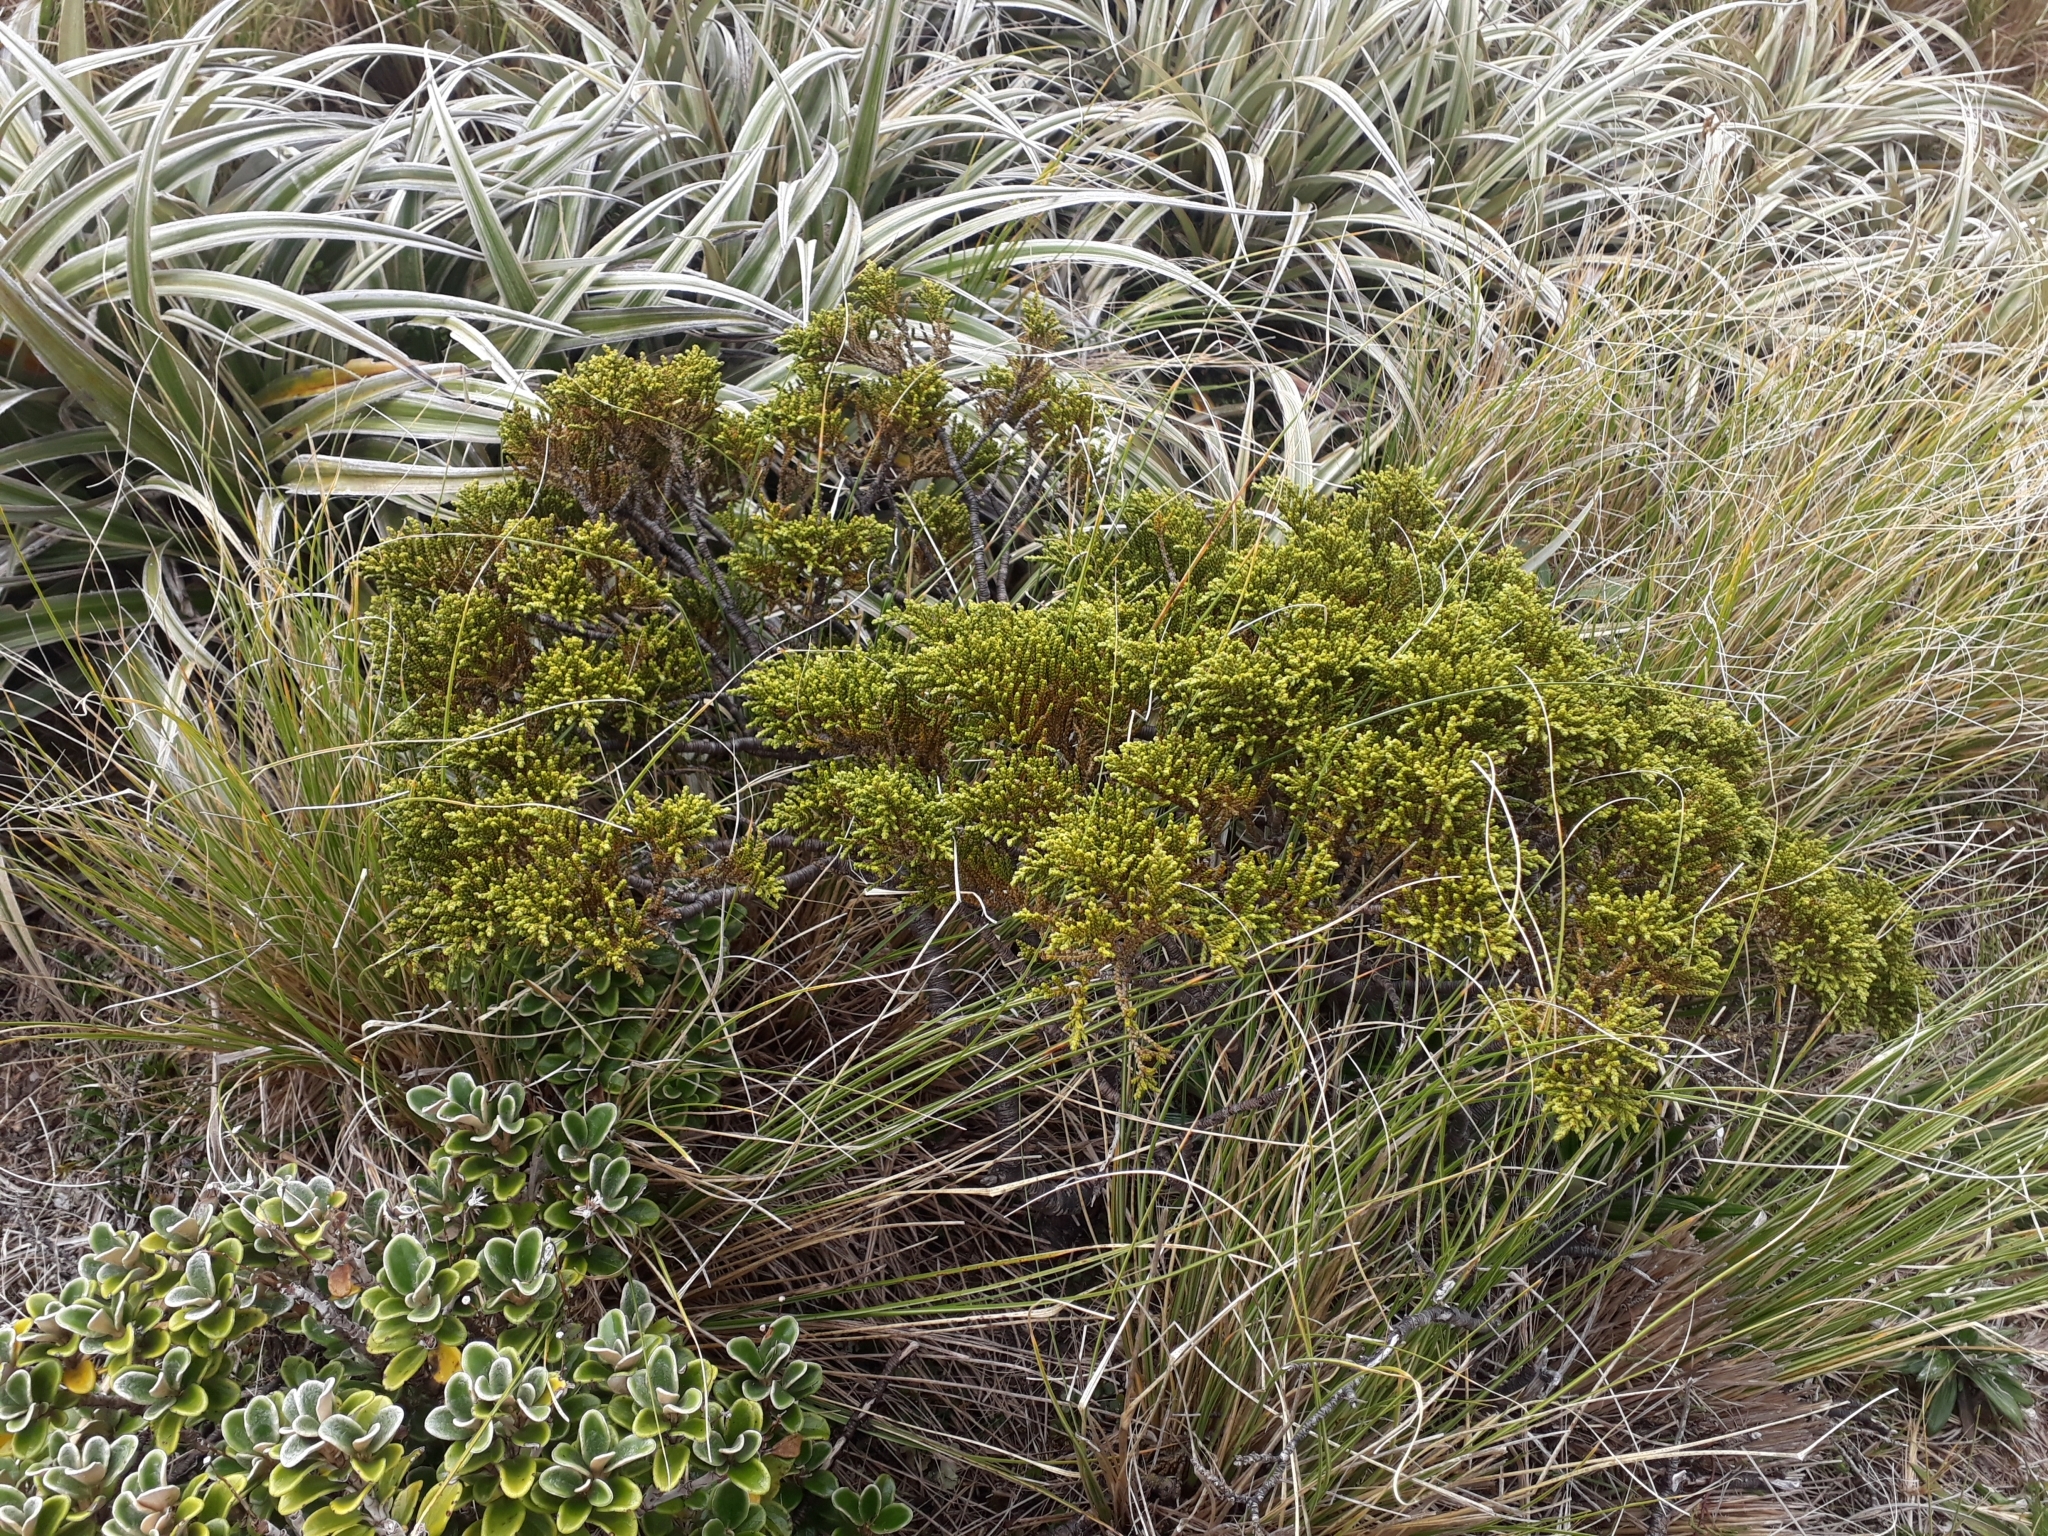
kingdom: Plantae
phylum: Tracheophyta
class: Magnoliopsida
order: Lamiales
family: Plantaginaceae
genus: Veronica
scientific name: Veronica tetragona
